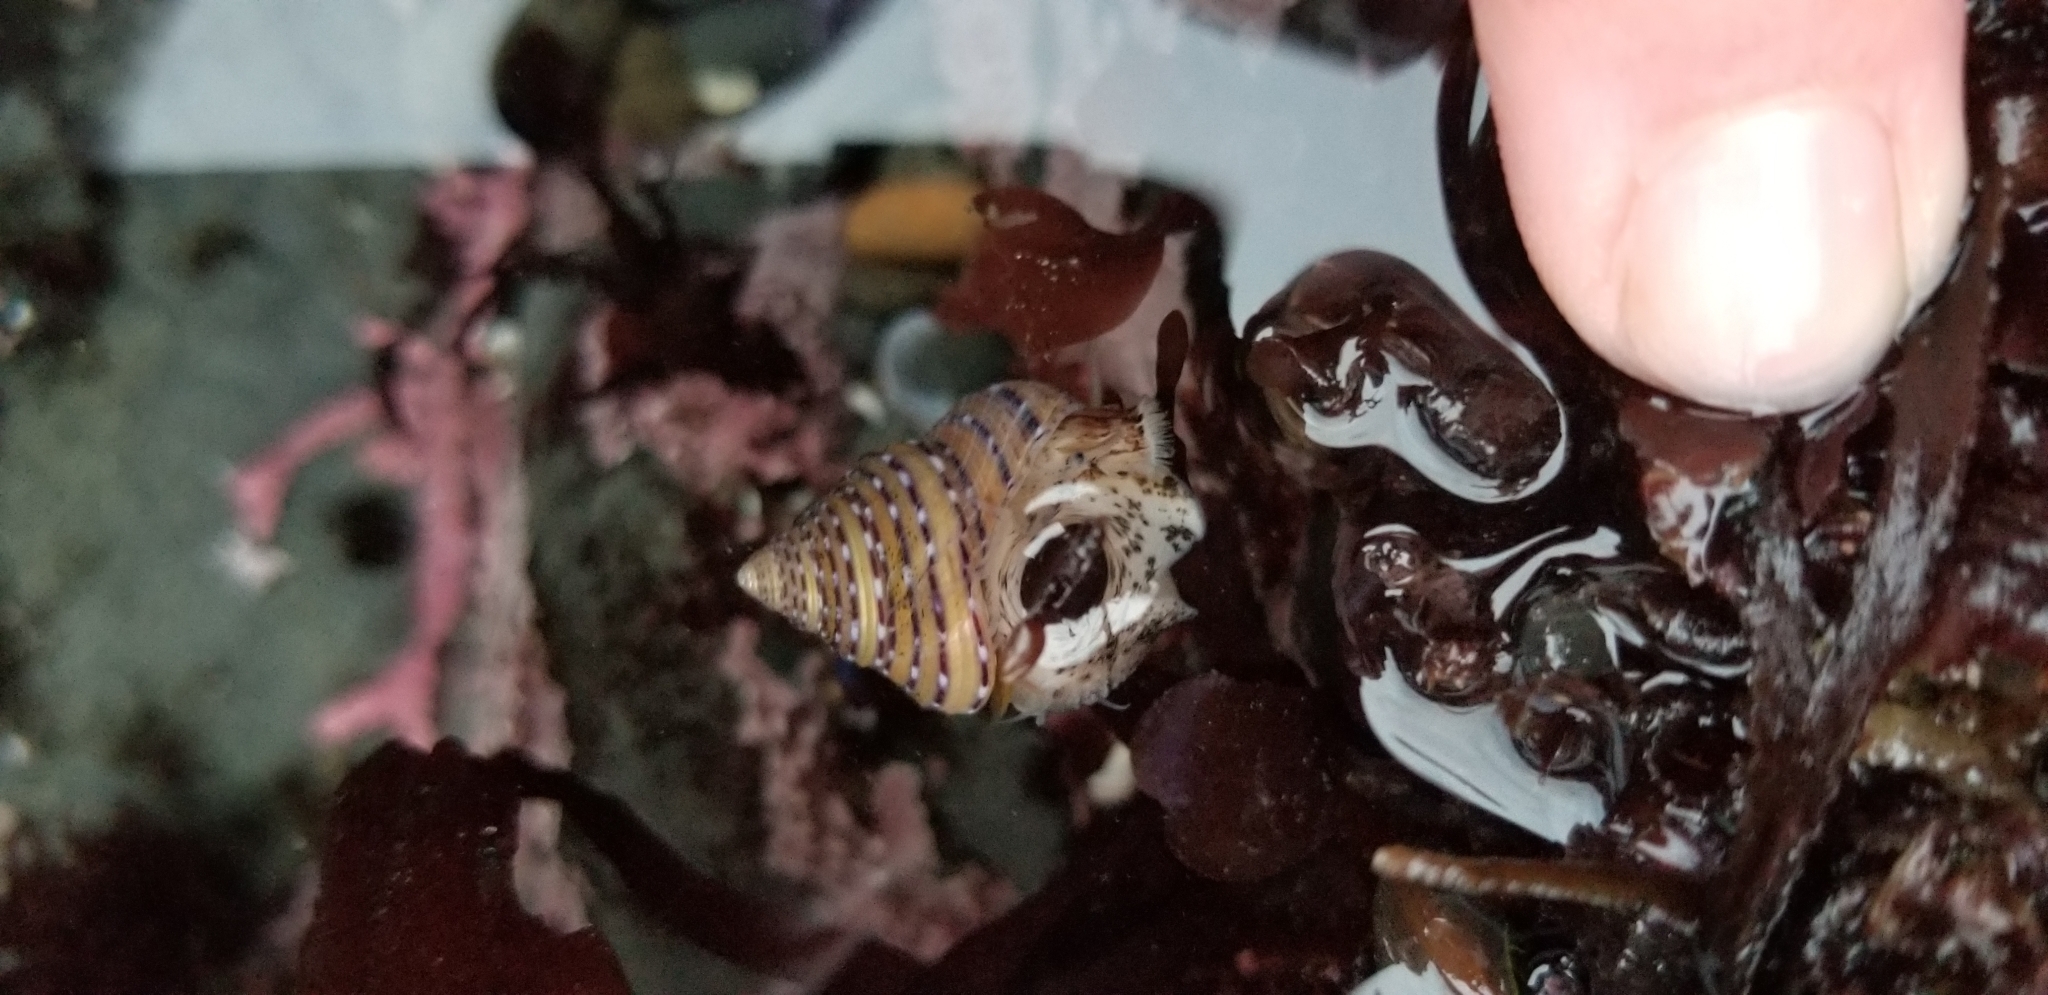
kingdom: Animalia
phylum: Mollusca
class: Gastropoda
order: Trochida
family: Calliostomatidae
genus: Calliostoma
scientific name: Calliostoma tricolor
